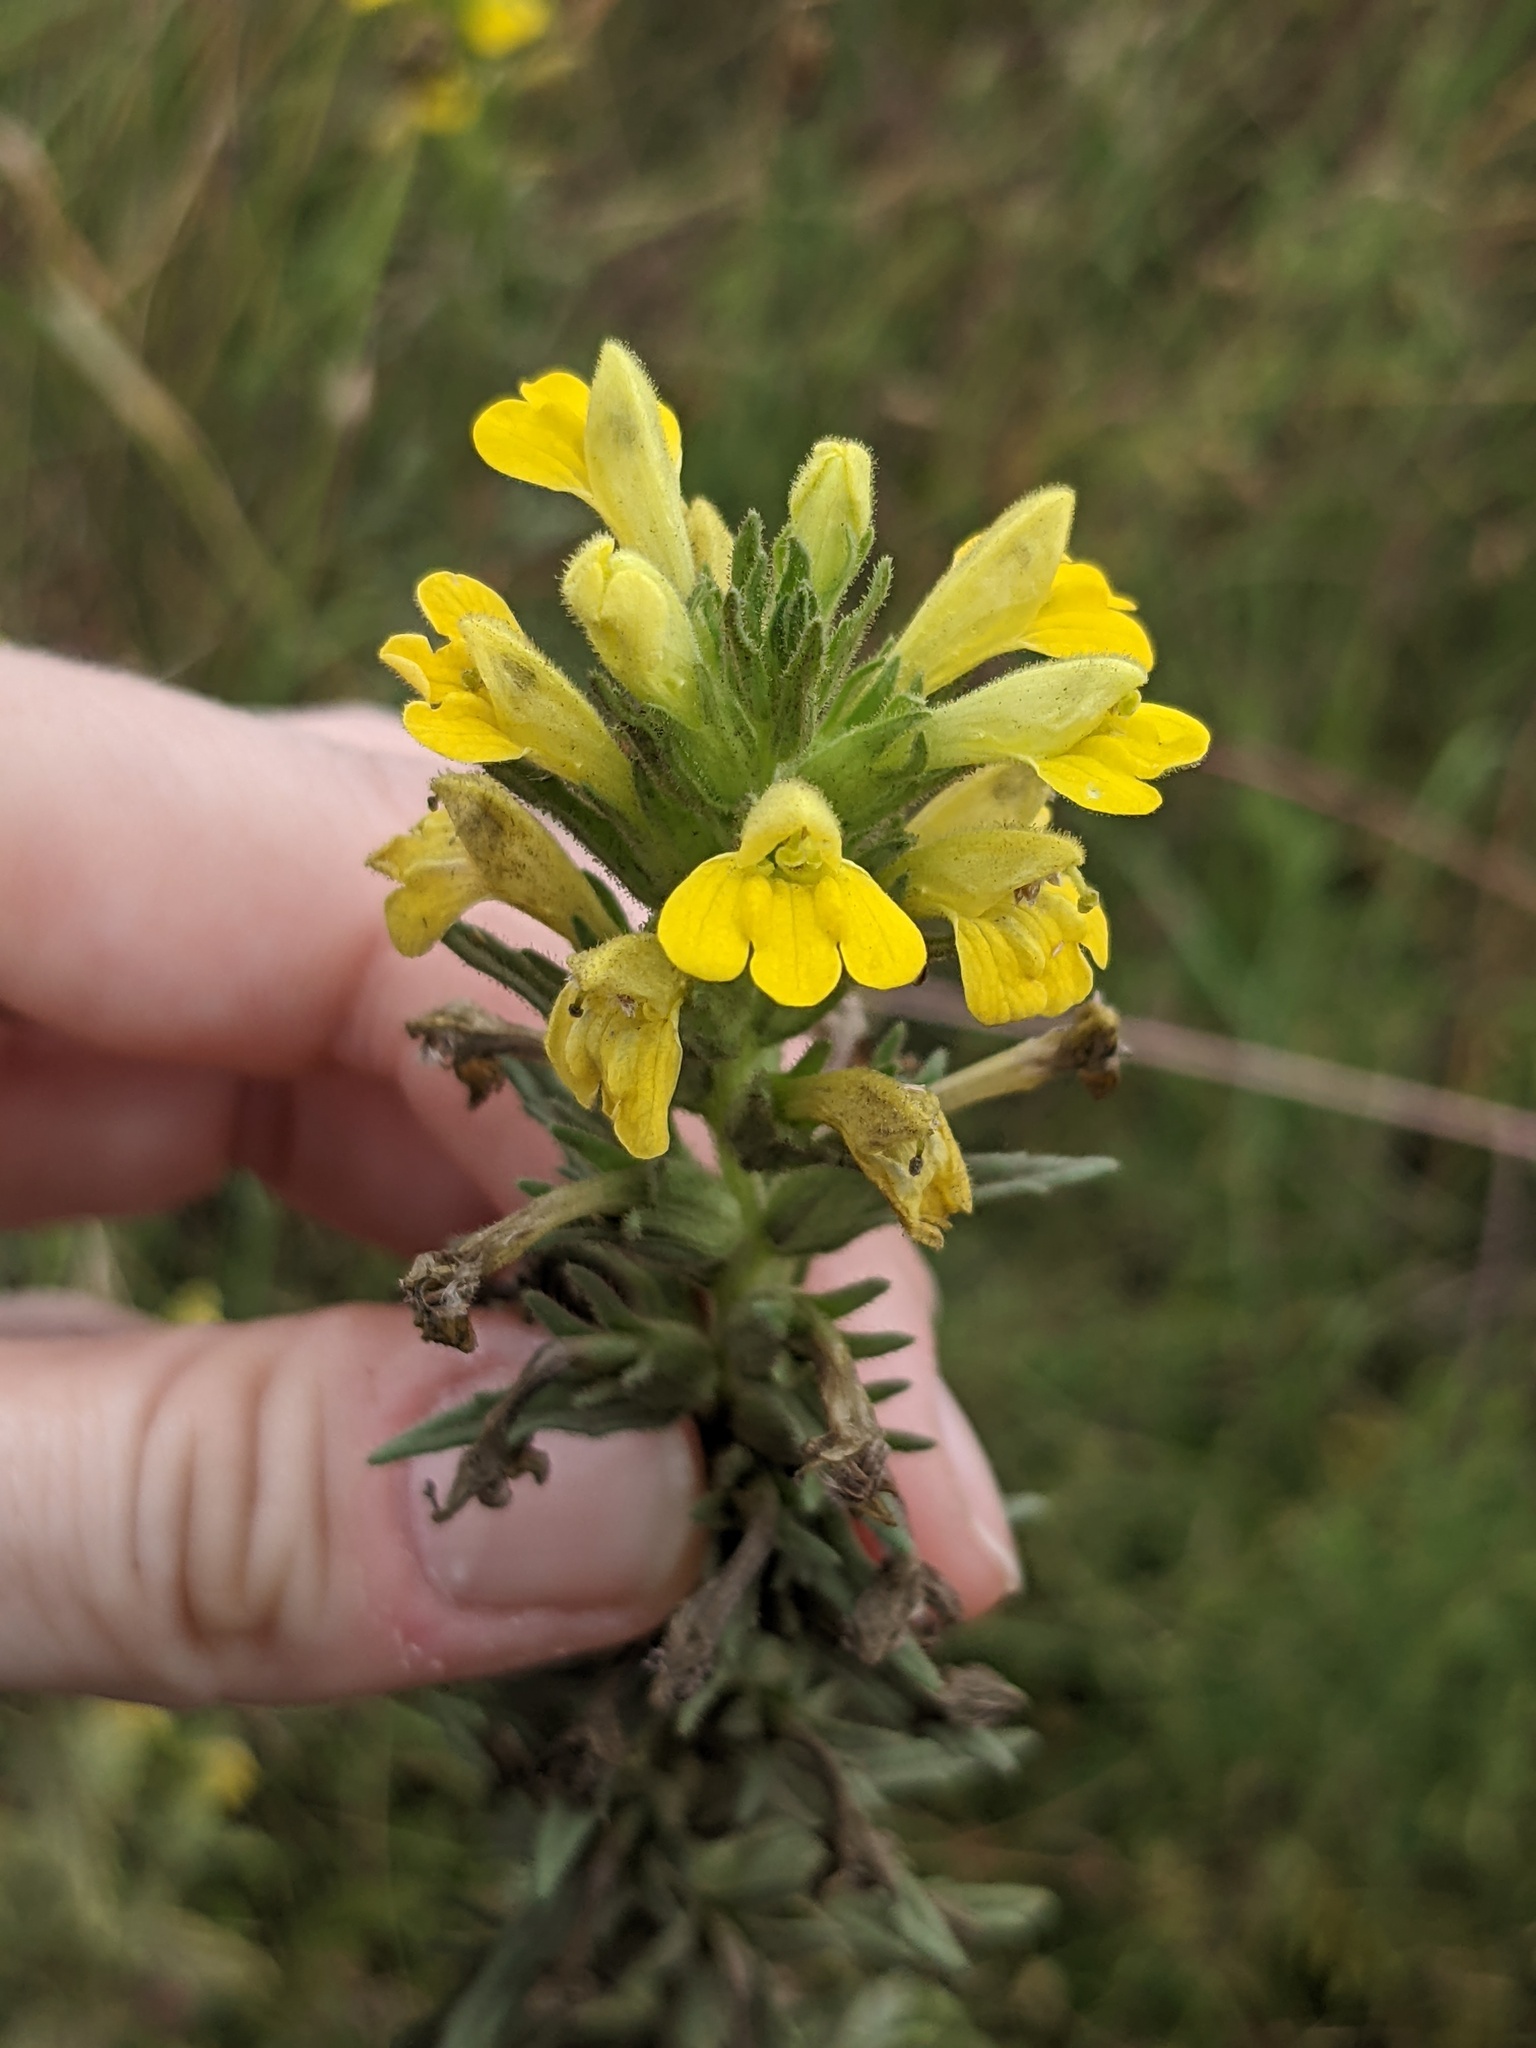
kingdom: Plantae
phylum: Tracheophyta
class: Magnoliopsida
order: Lamiales
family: Orobanchaceae
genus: Bellardia
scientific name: Bellardia viscosa
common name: Sticky parentucellia
